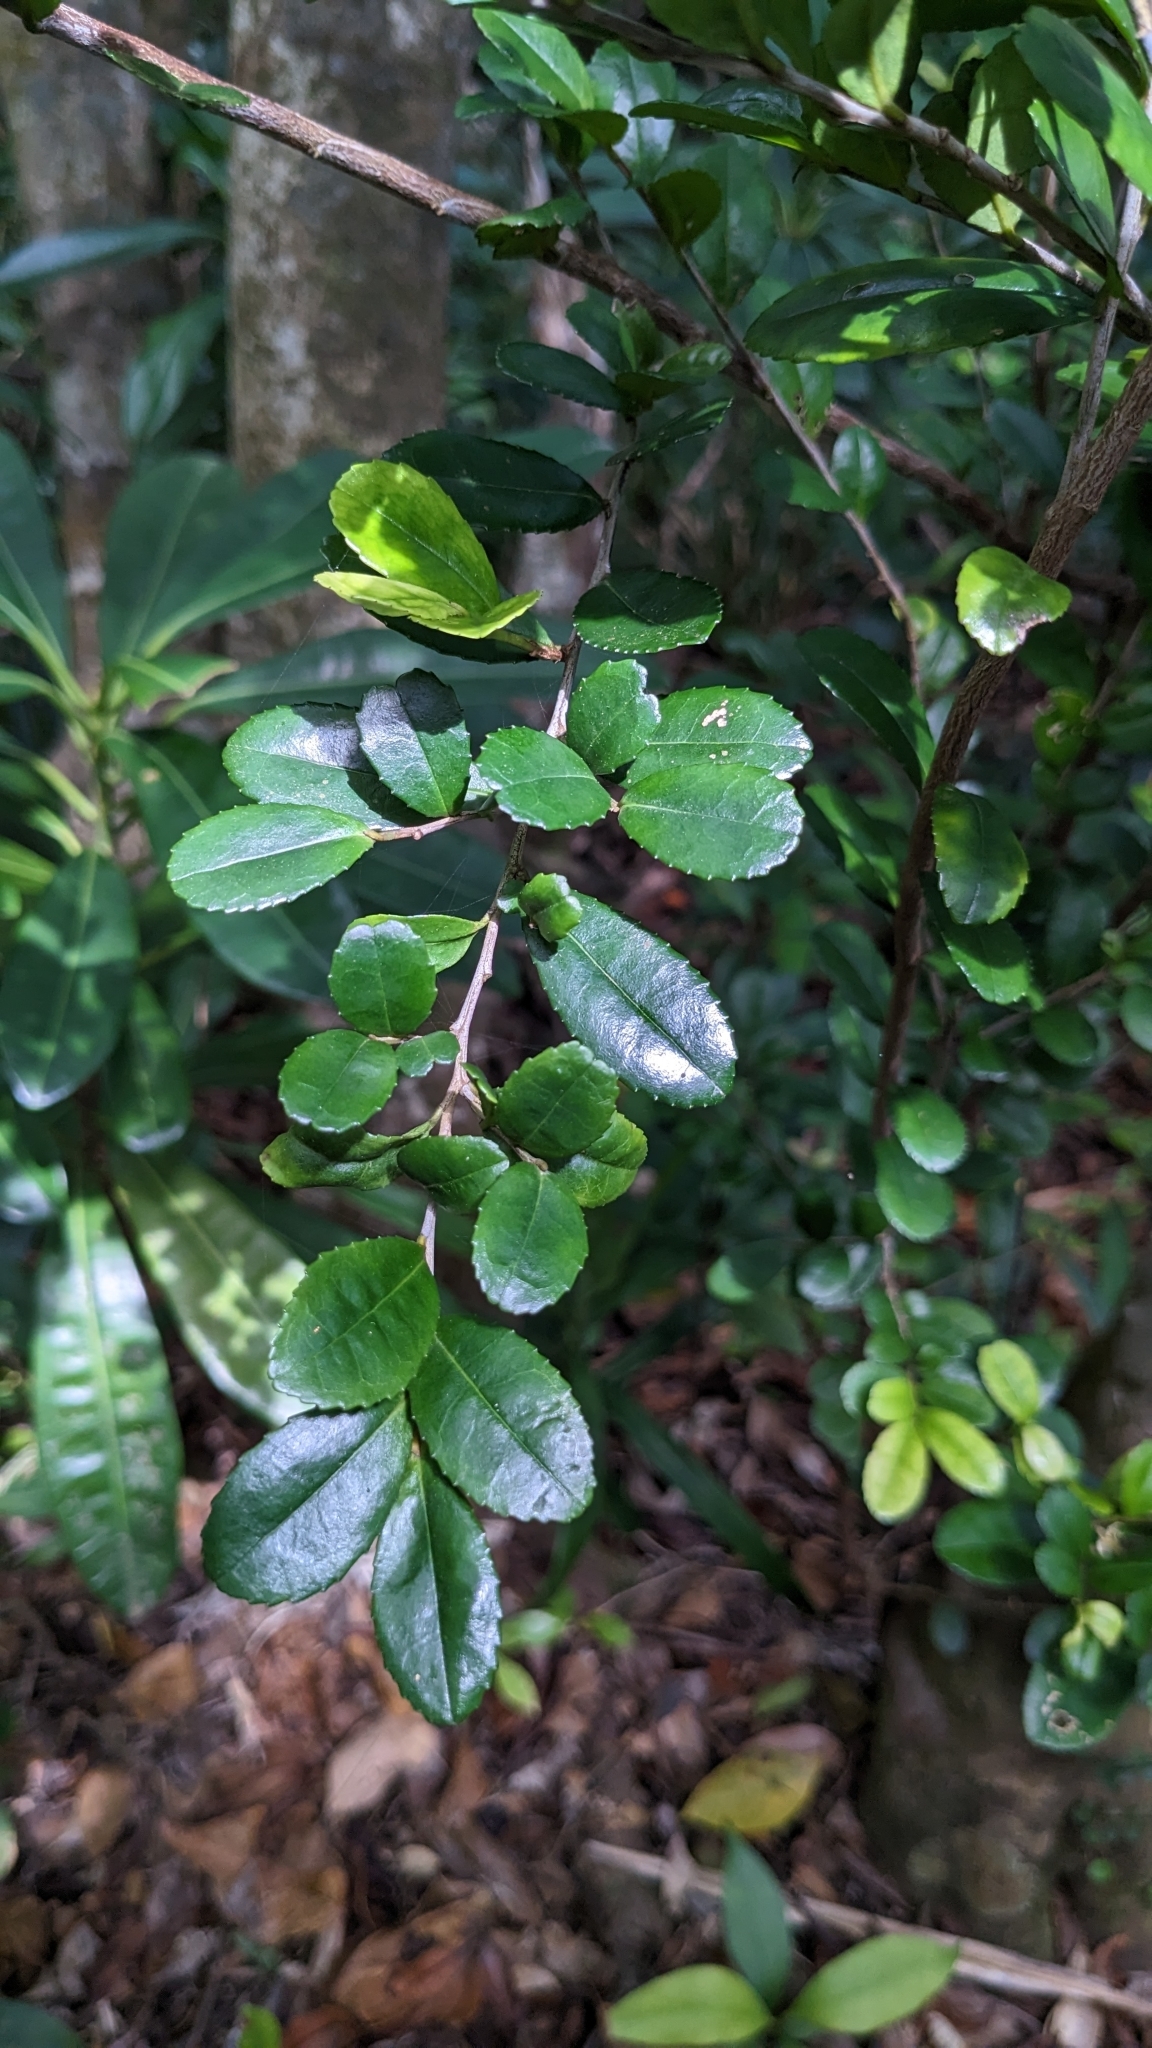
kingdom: Plantae
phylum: Tracheophyta
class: Magnoliopsida
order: Ericales
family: Pentaphylacaceae
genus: Eurya
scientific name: Eurya emarginata
